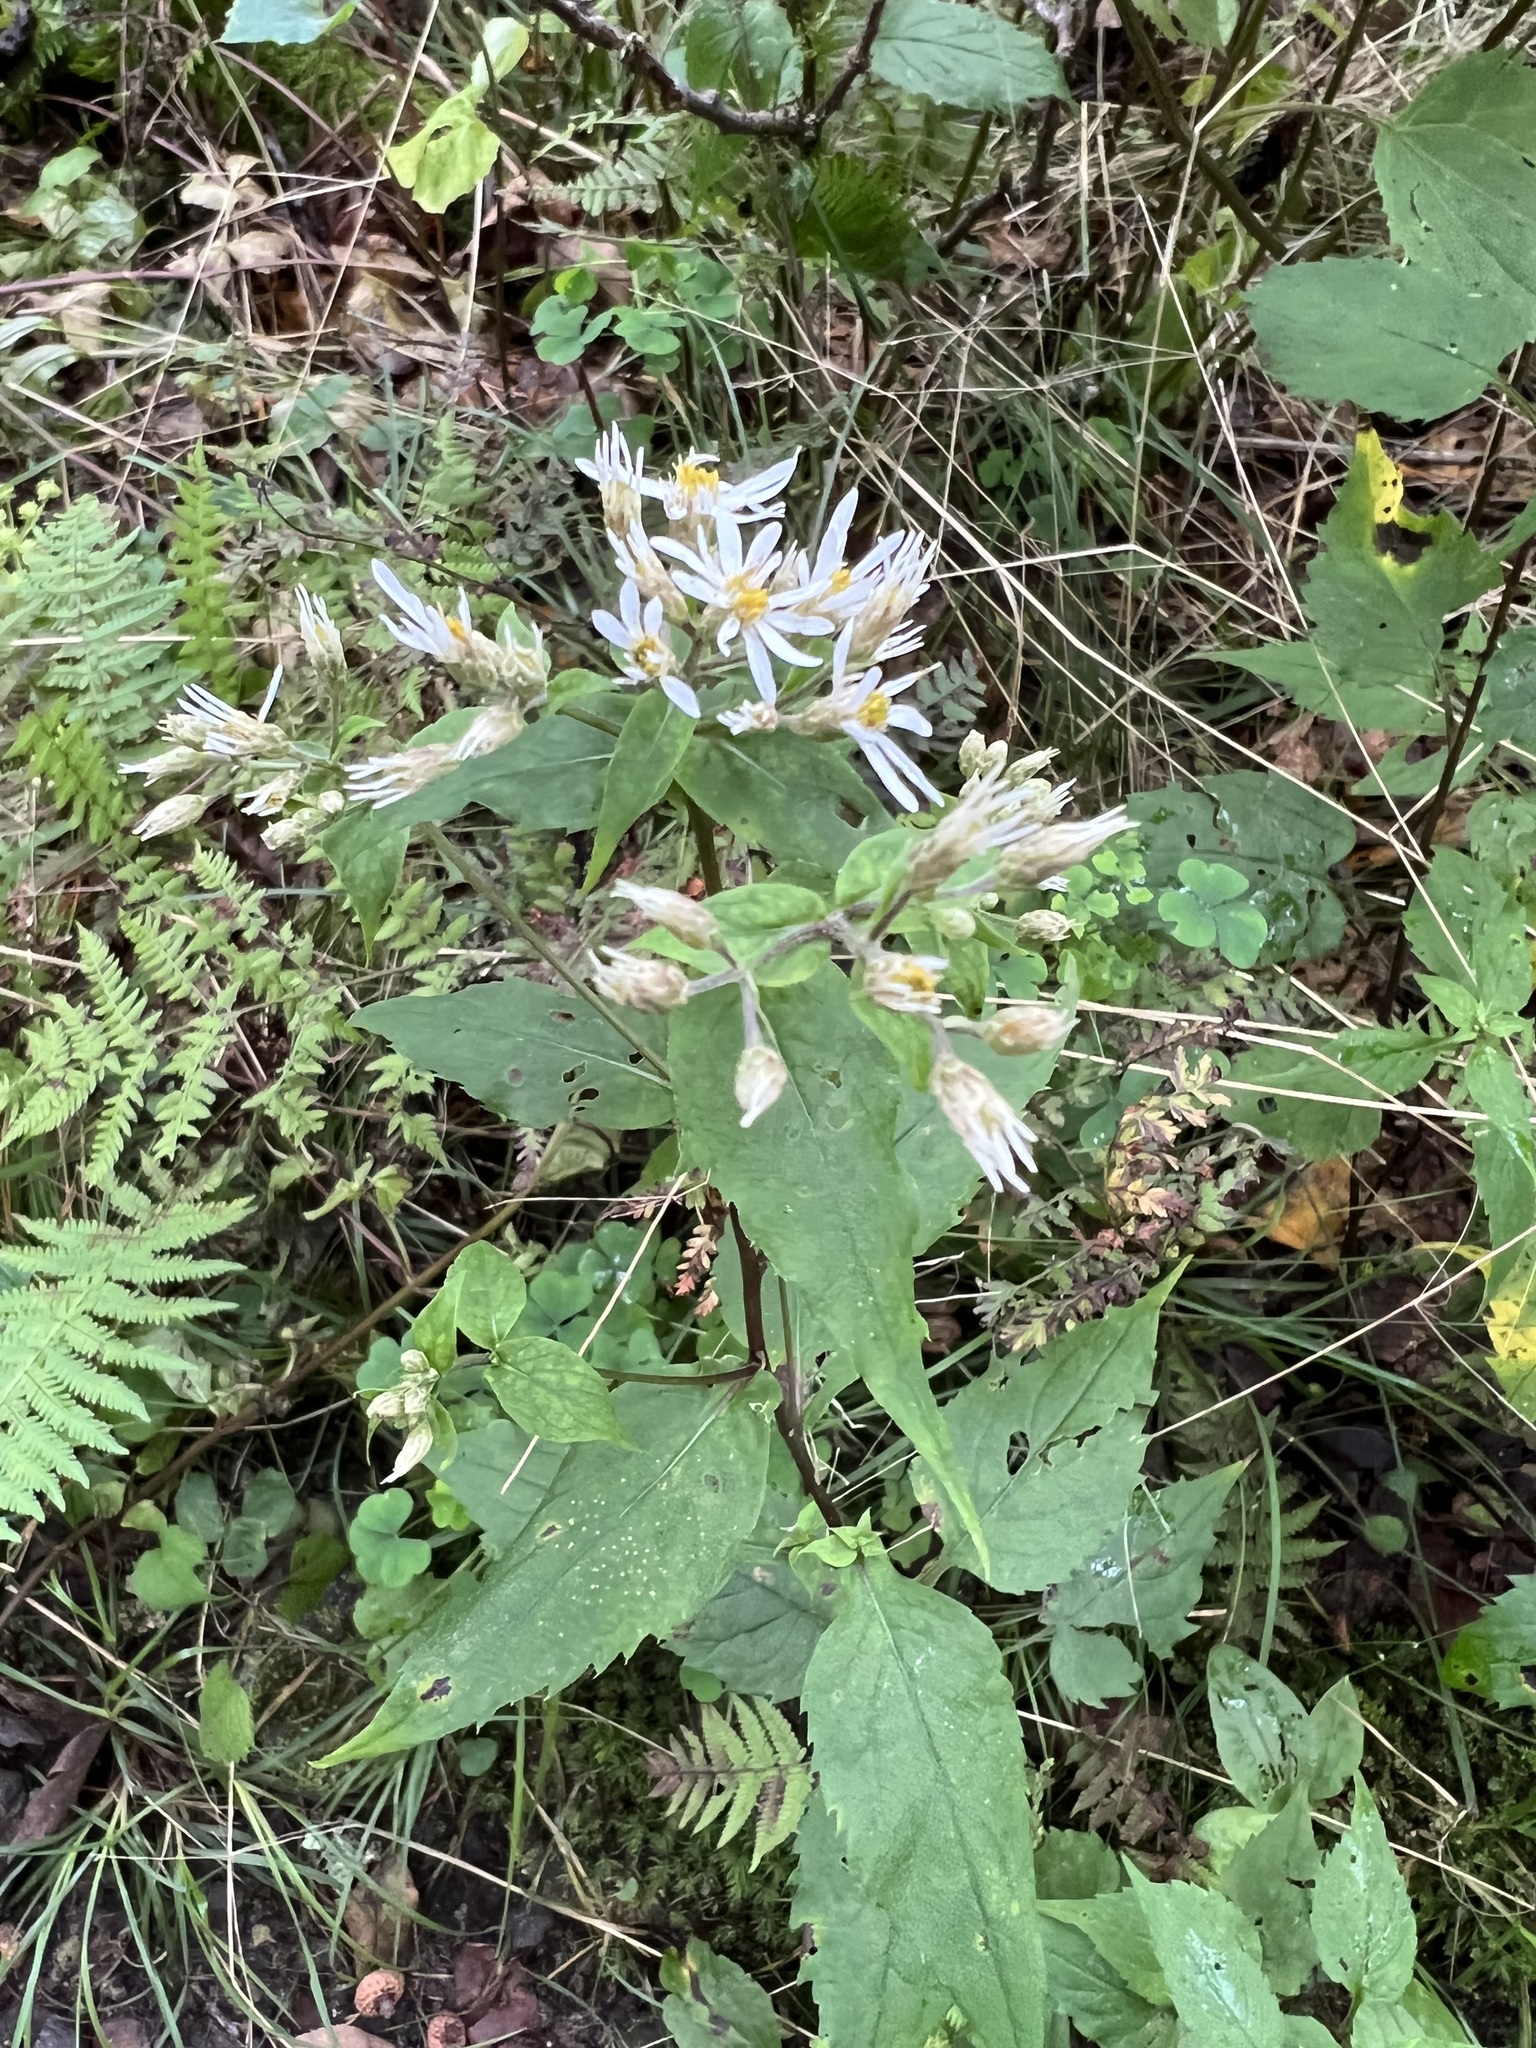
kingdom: Plantae
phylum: Tracheophyta
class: Magnoliopsida
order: Asterales
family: Asteraceae
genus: Eurybia
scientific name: Eurybia divaricata
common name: White wood aster
